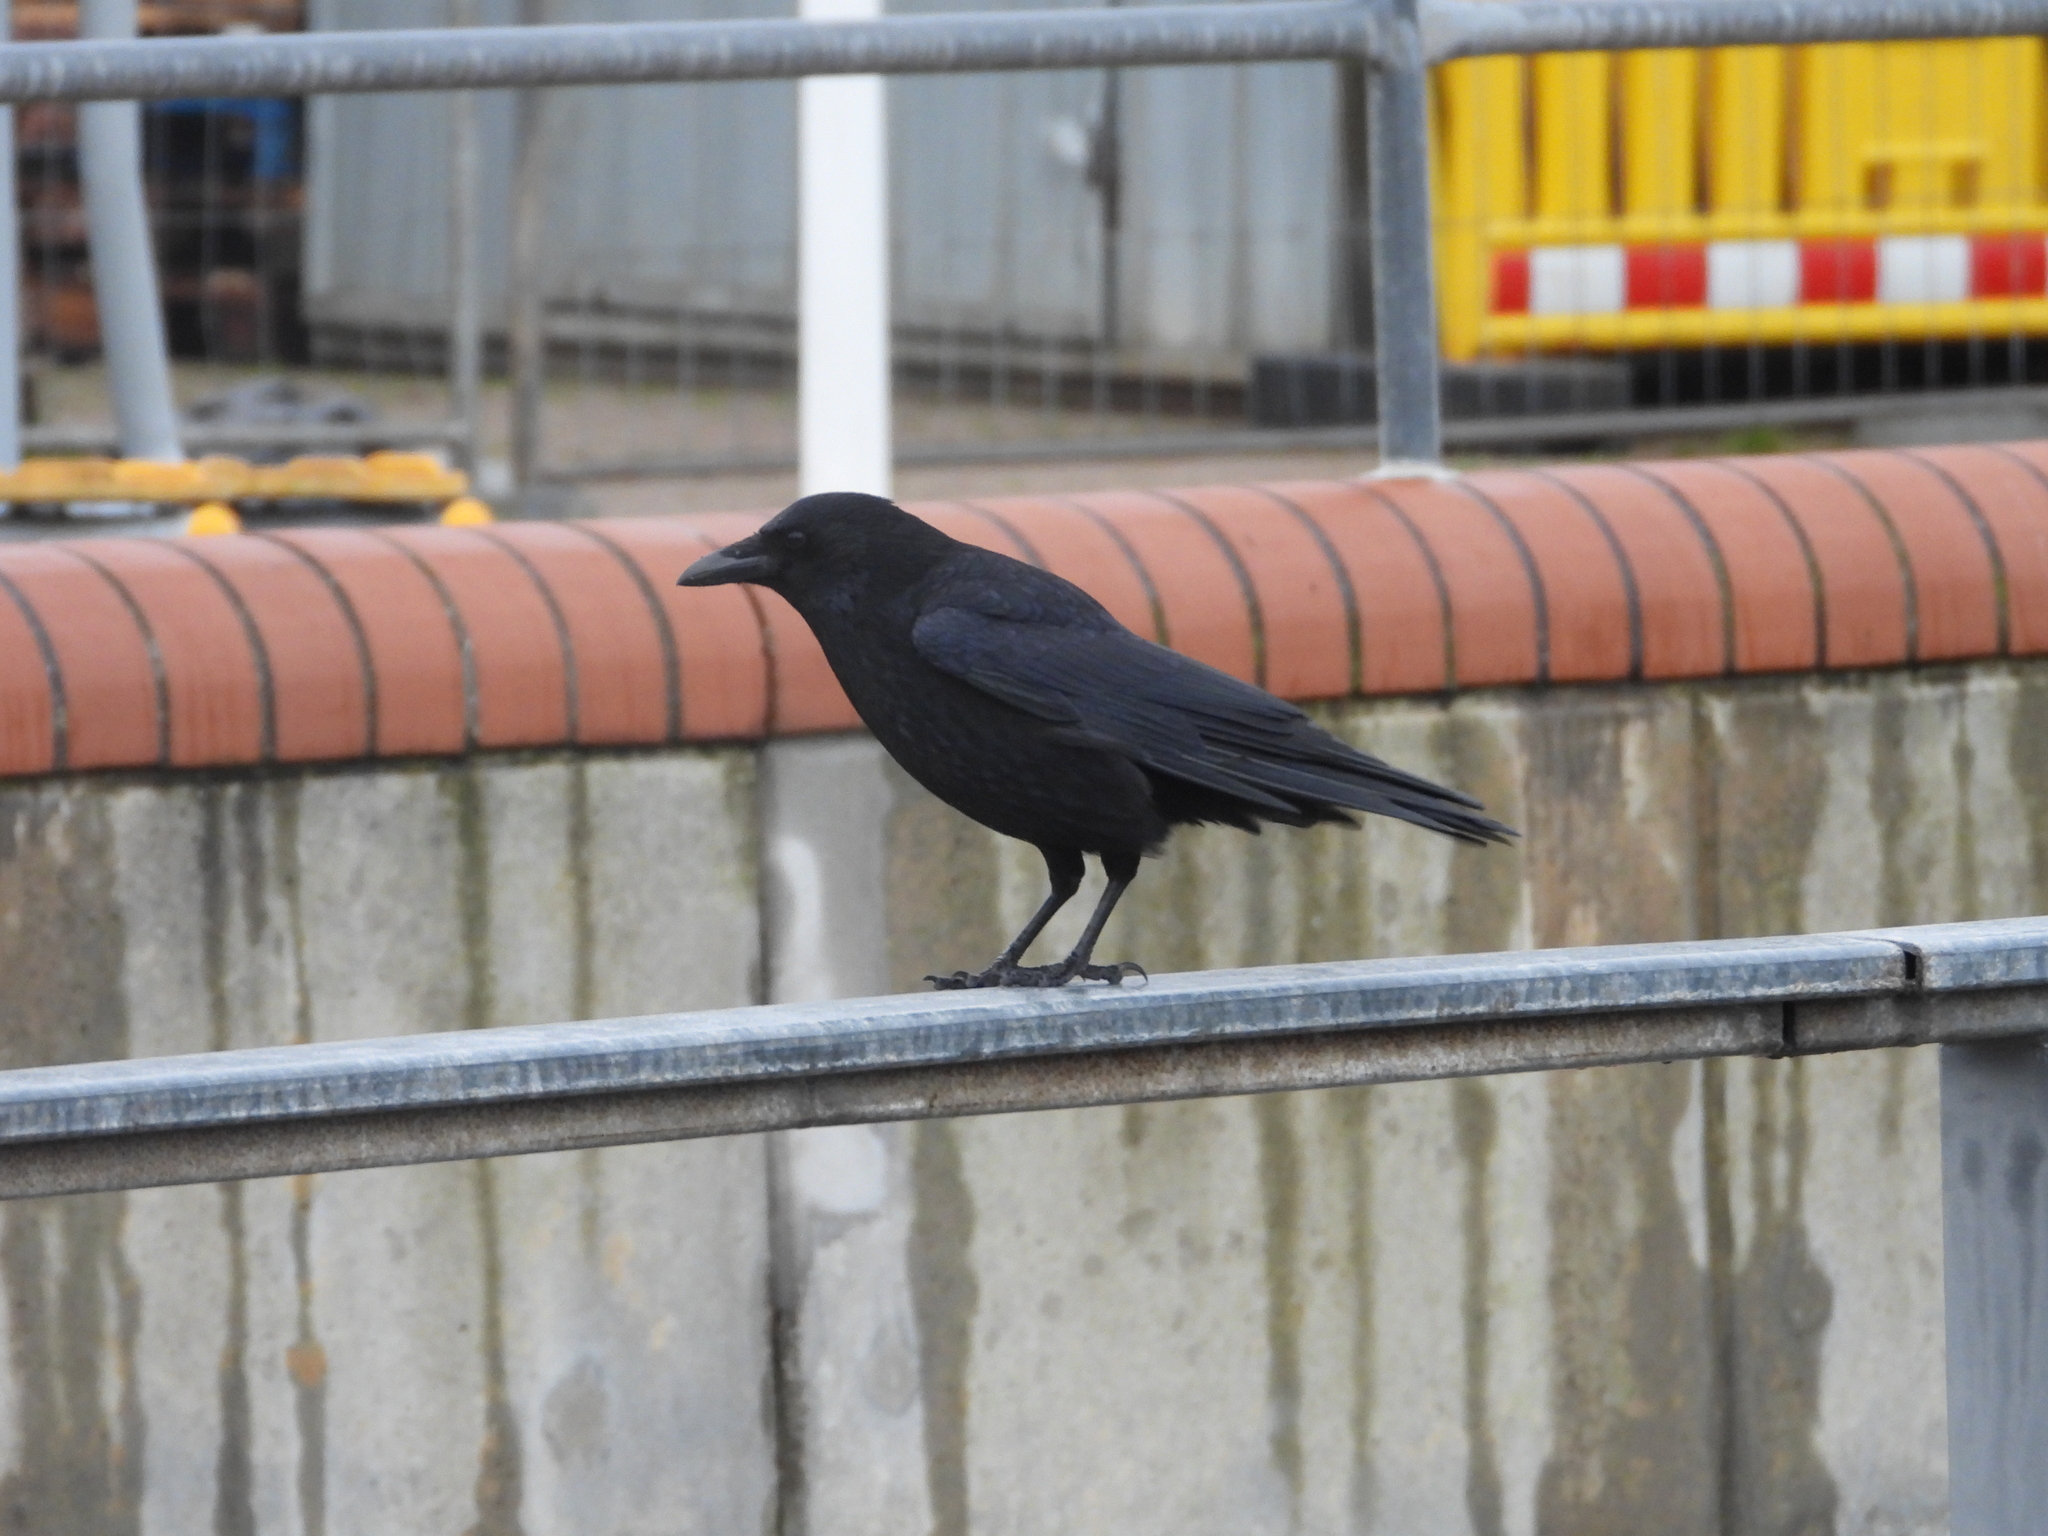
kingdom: Animalia
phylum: Chordata
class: Aves
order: Passeriformes
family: Corvidae
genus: Corvus
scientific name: Corvus corone
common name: Carrion crow
